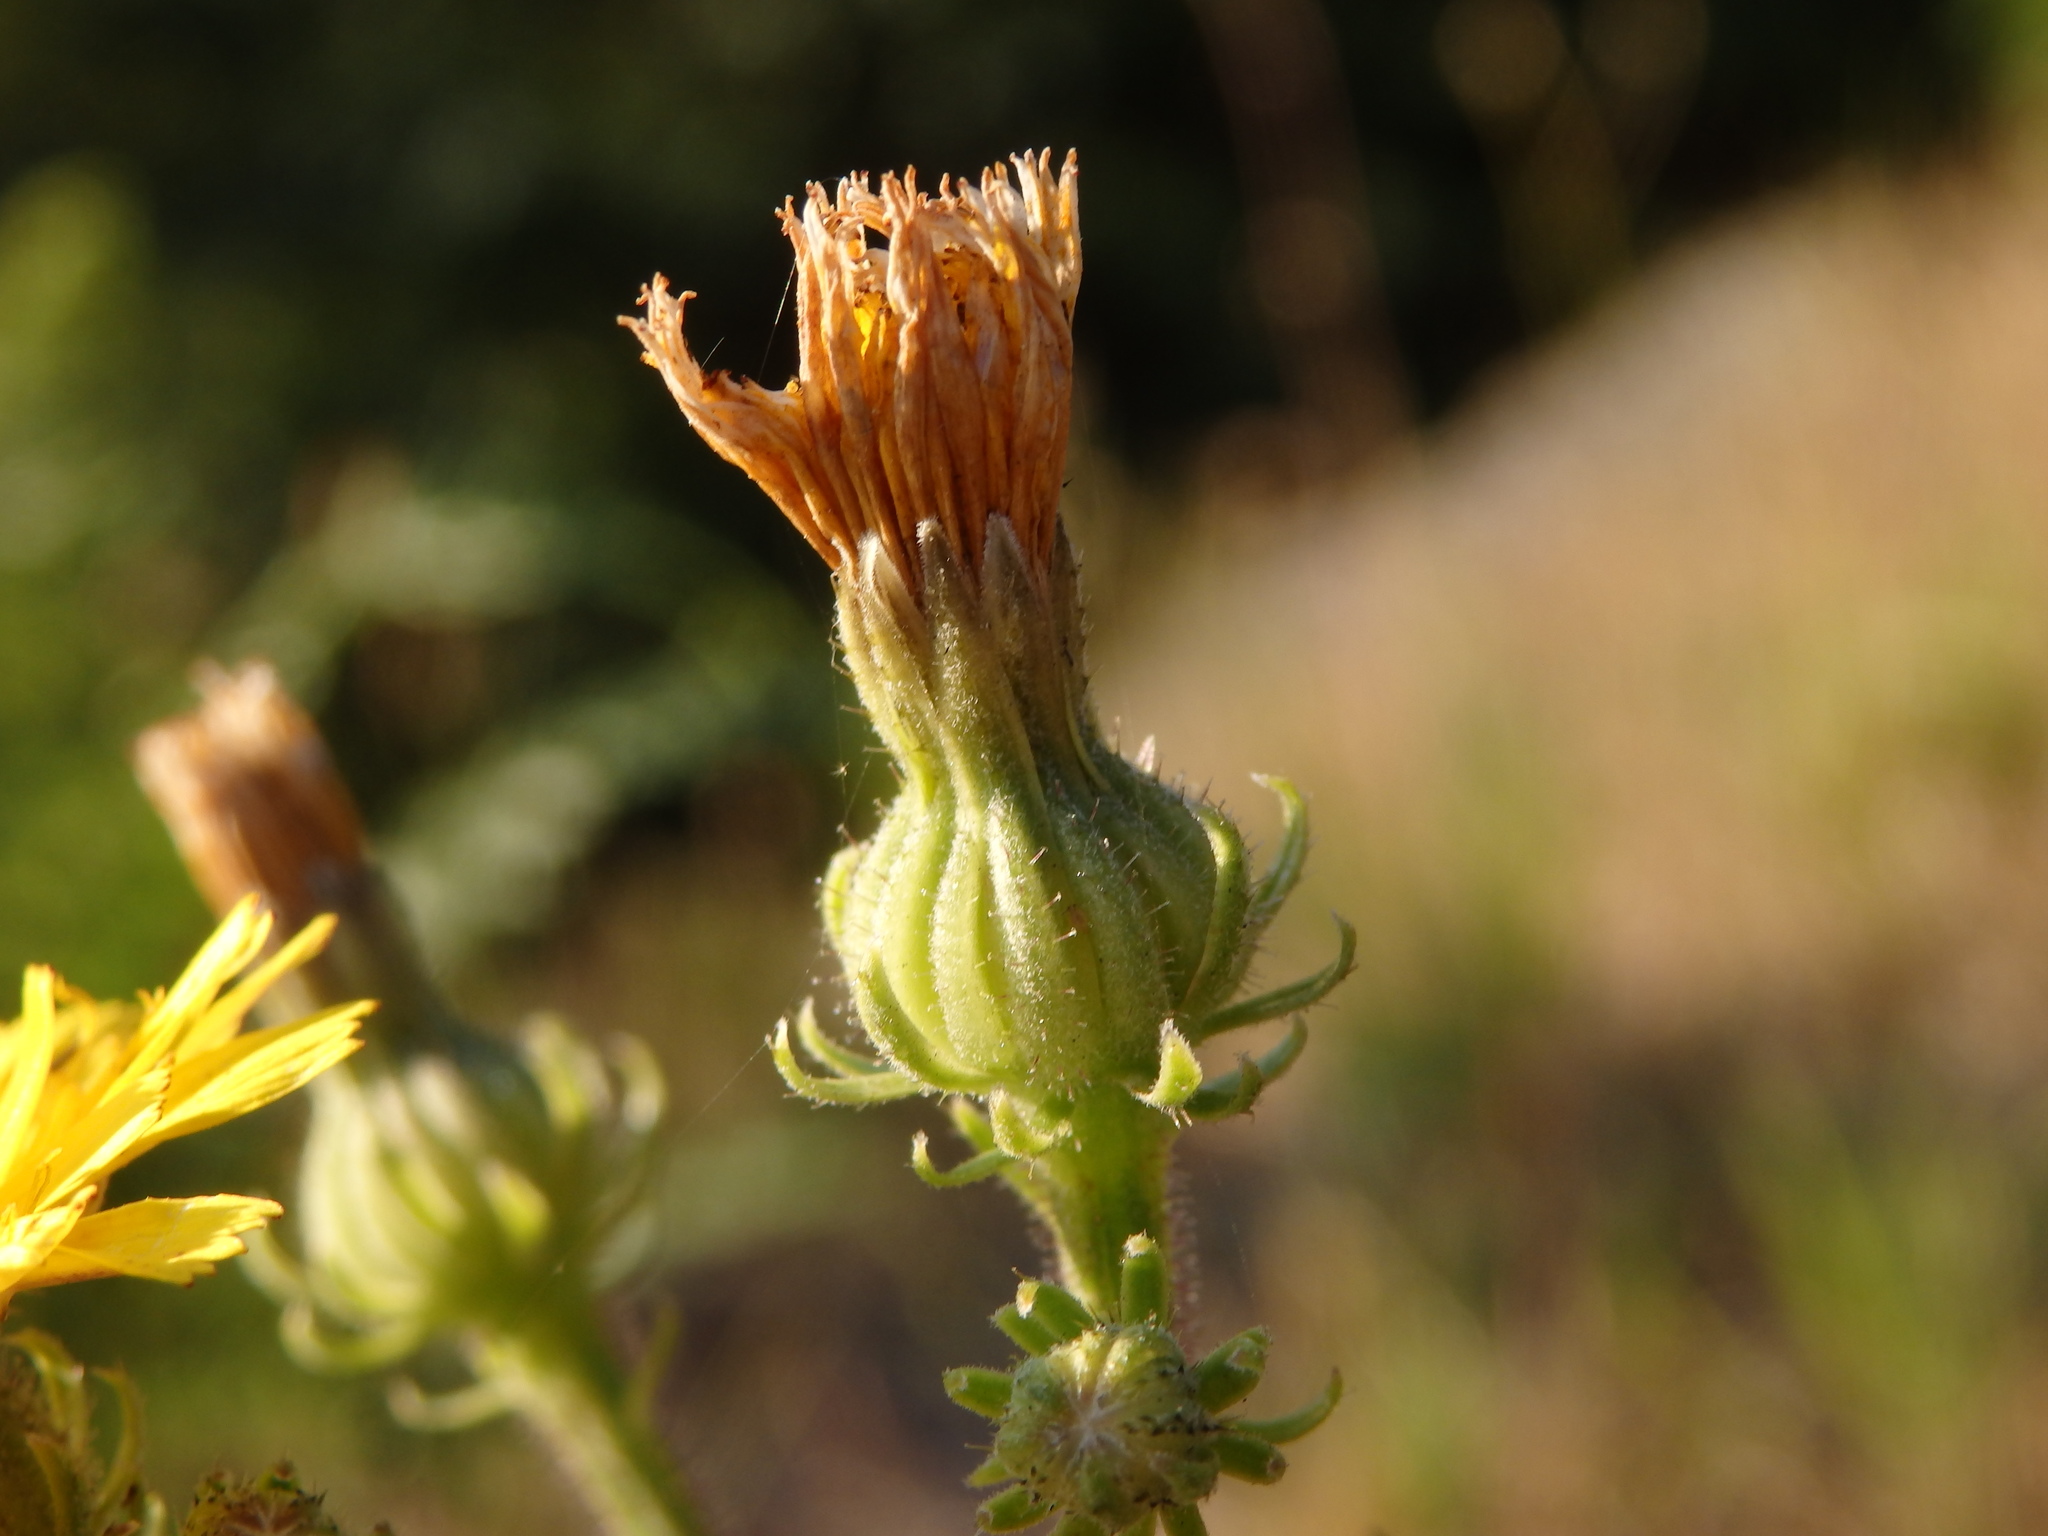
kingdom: Plantae
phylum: Tracheophyta
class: Magnoliopsida
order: Asterales
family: Asteraceae
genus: Picris
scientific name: Picris hieracioides
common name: Hawkweed oxtongue
